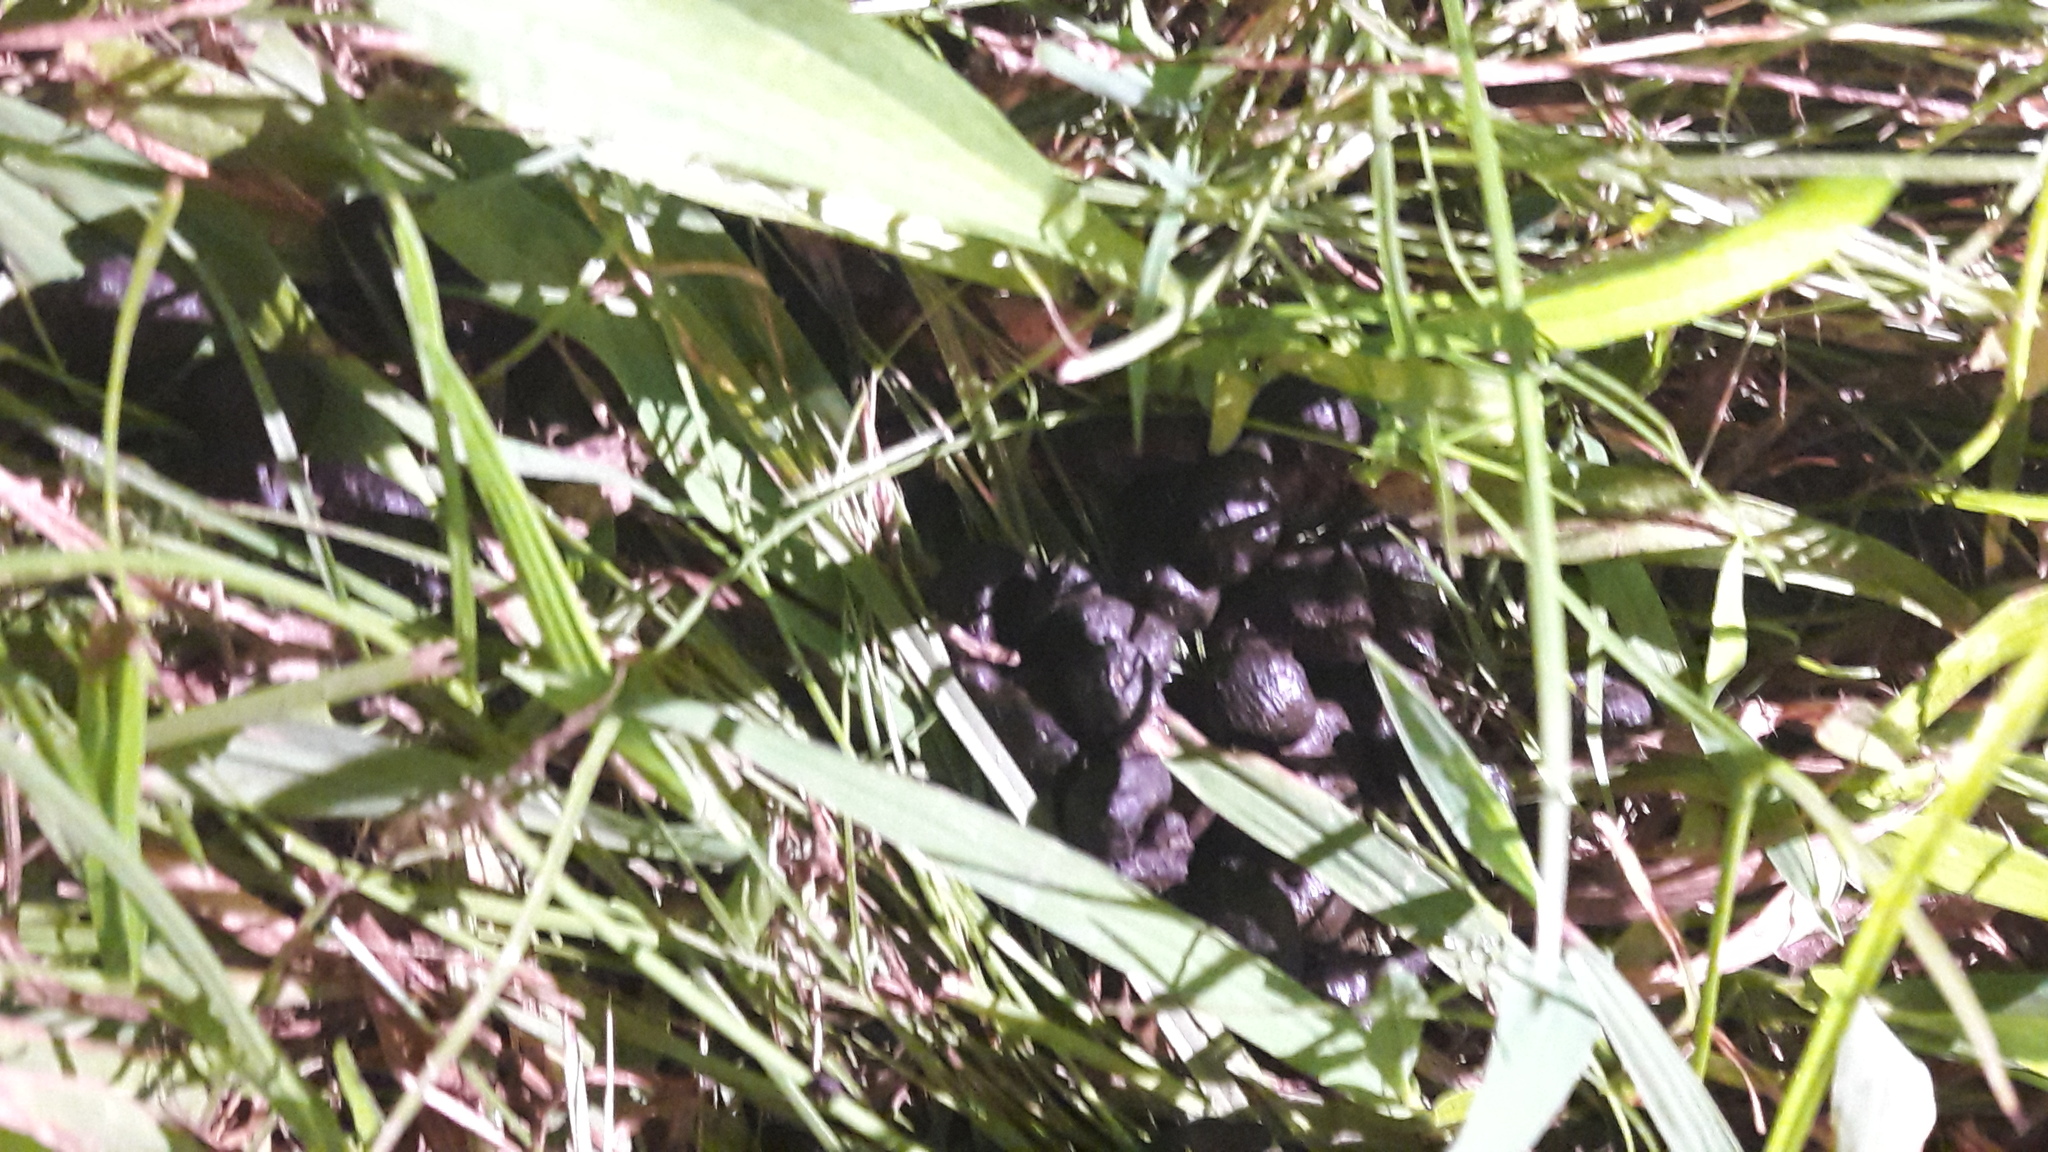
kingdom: Animalia
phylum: Chordata
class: Mammalia
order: Artiodactyla
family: Cervidae
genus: Odocoileus
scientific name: Odocoileus virginianus
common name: White-tailed deer
